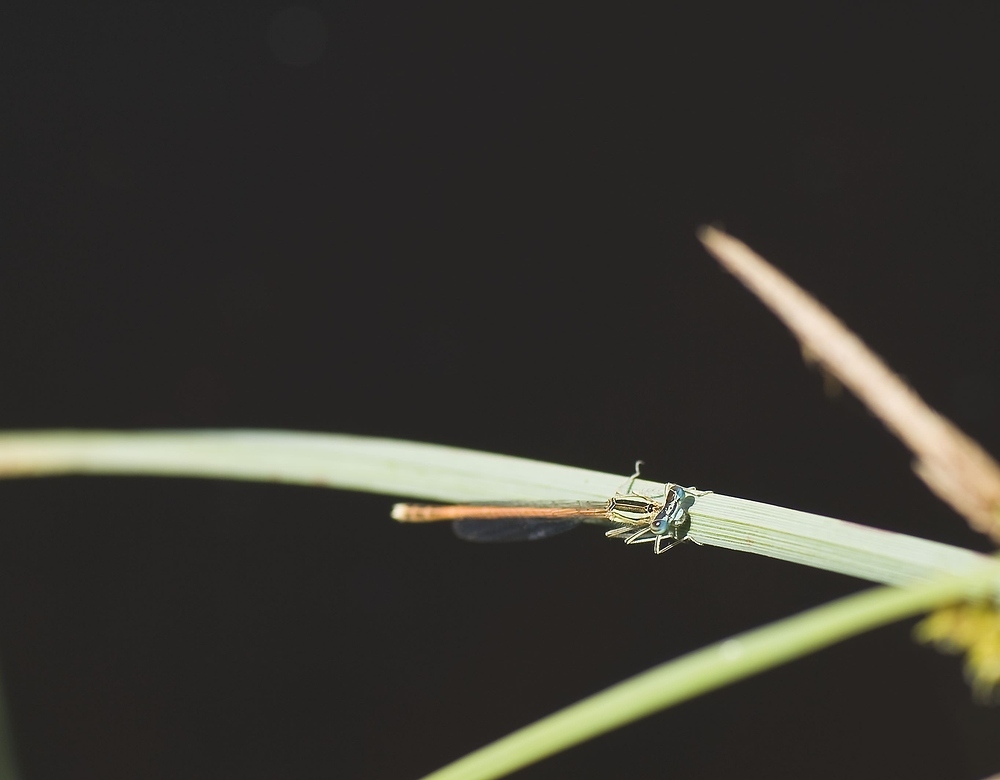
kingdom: Animalia
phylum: Arthropoda
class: Insecta
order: Odonata
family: Platycnemididae
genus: Platycnemis
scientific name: Platycnemis acutipennis
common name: Orange featherleg
